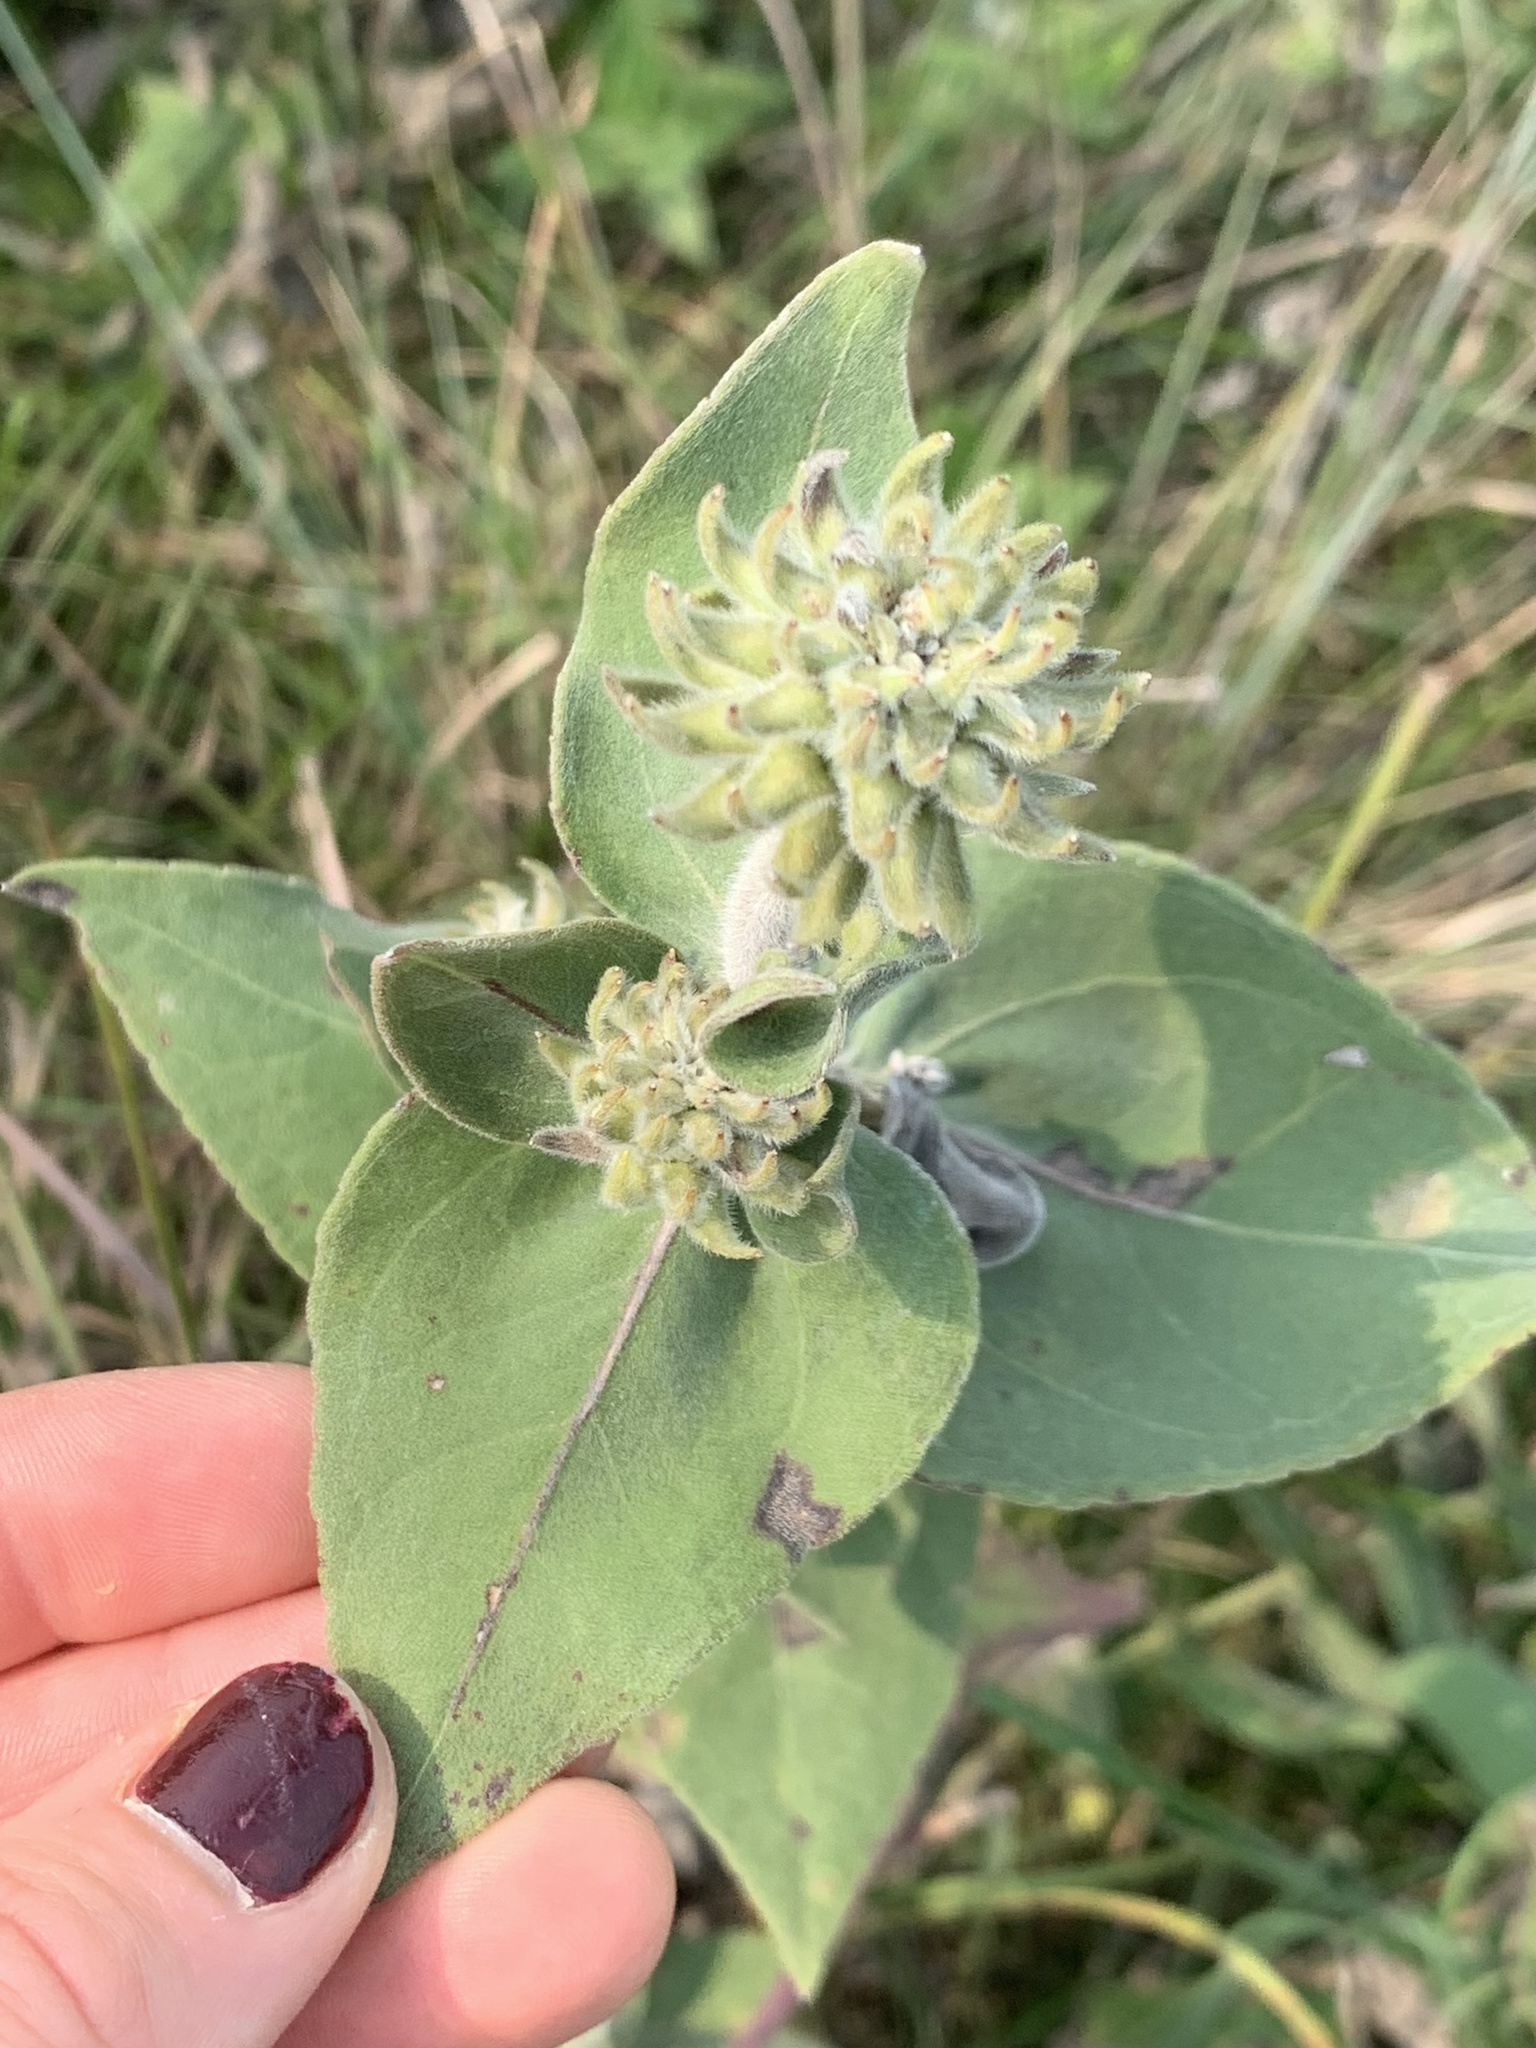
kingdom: Plantae
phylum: Tracheophyta
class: Magnoliopsida
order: Asterales
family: Asteraceae
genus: Helianthus
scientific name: Helianthus mollis
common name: Ashy sunflower
